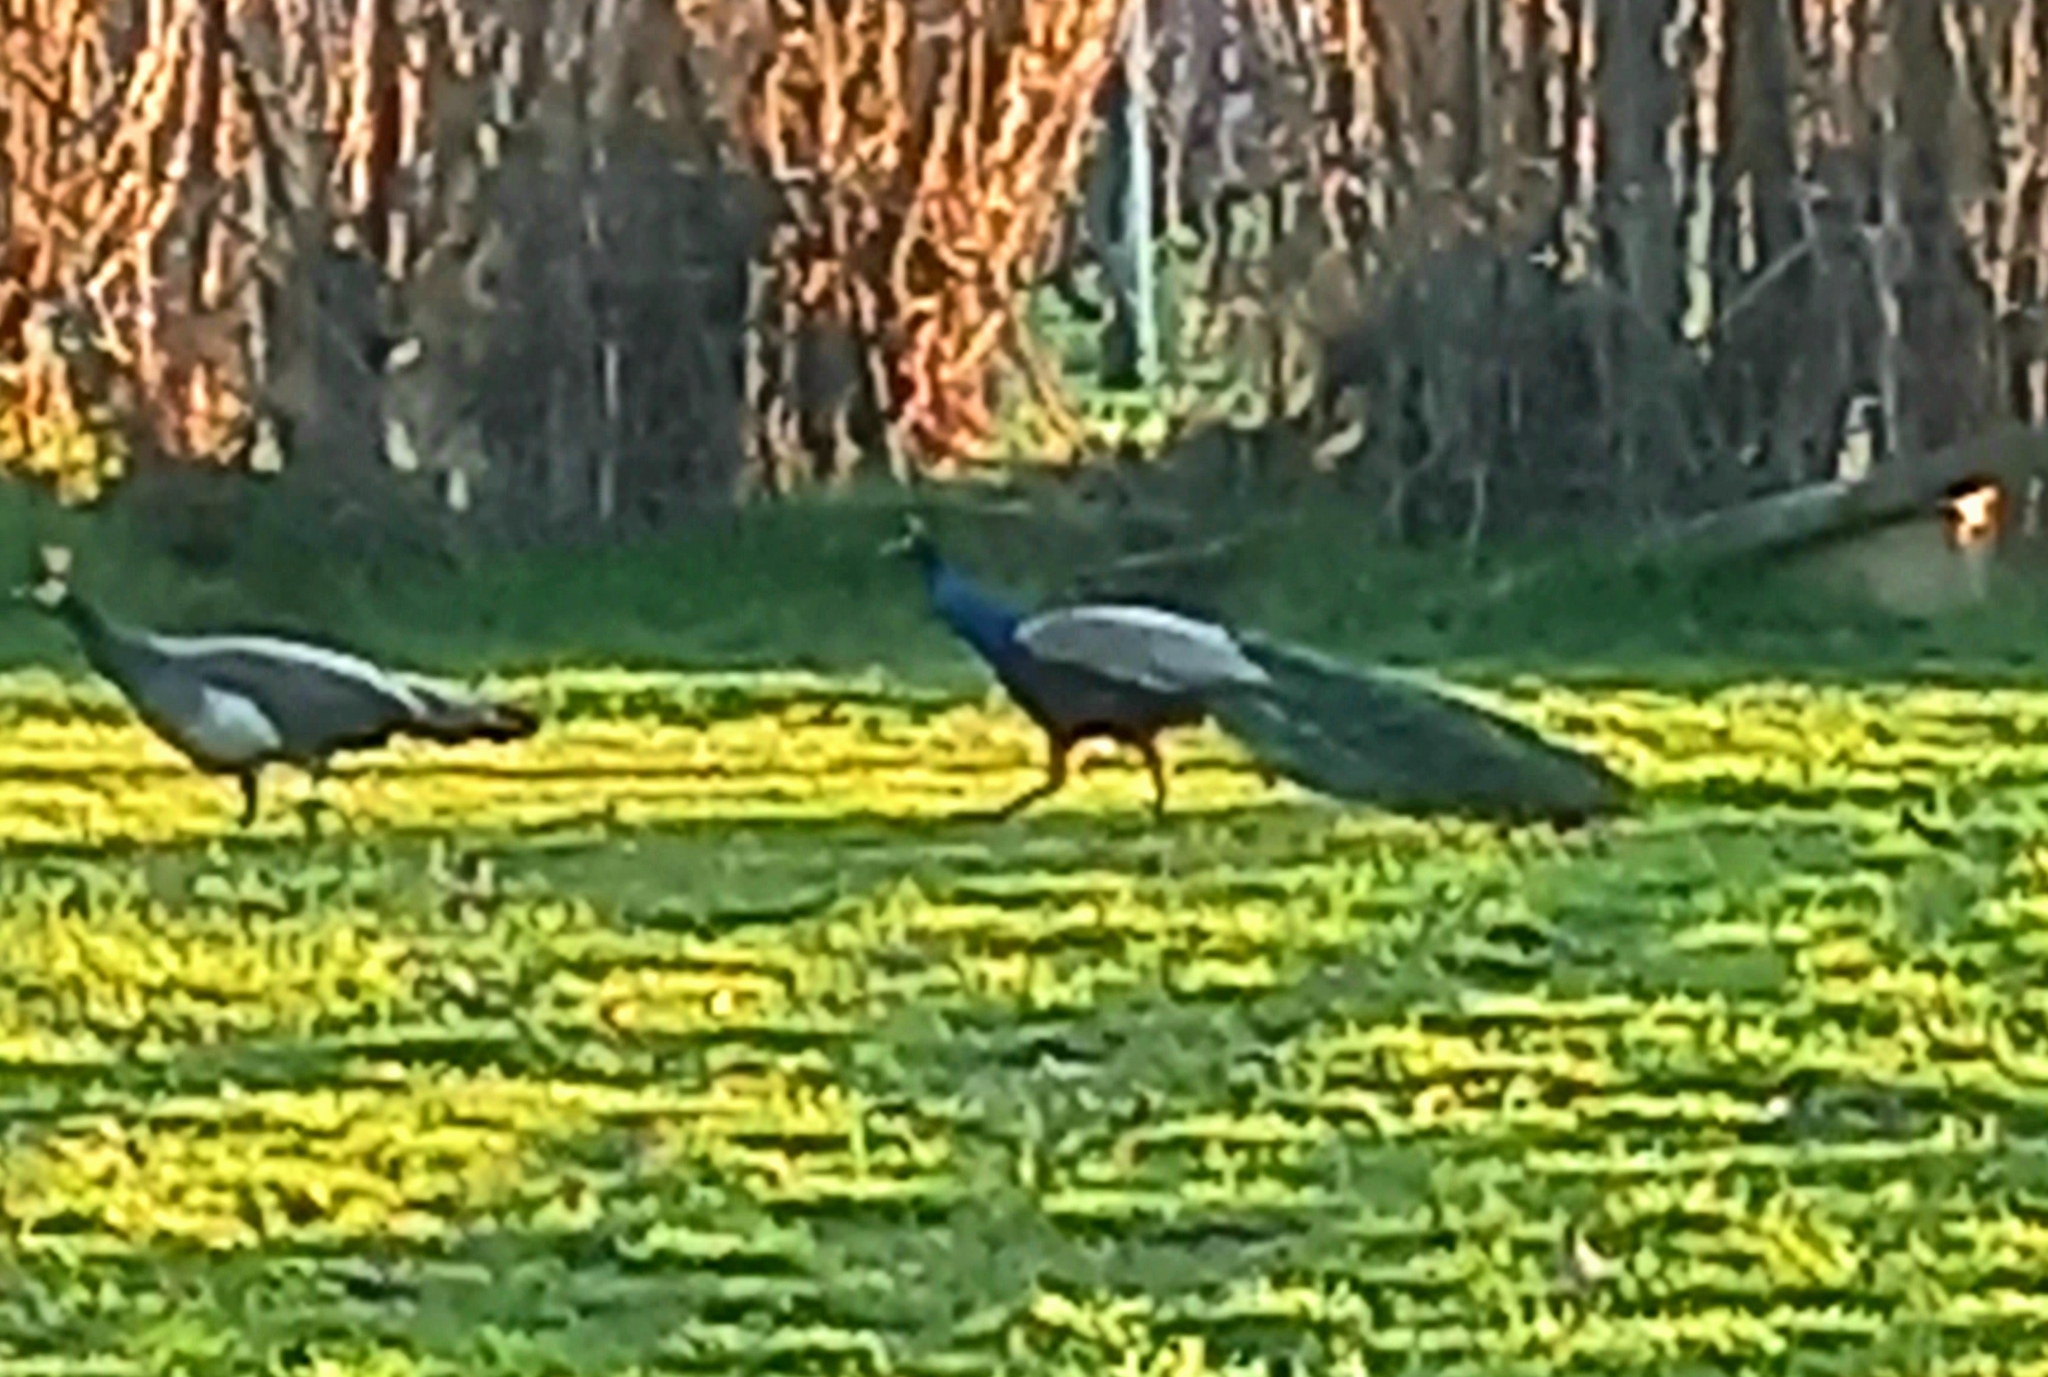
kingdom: Animalia
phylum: Chordata
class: Aves
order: Galliformes
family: Phasianidae
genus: Pavo
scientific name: Pavo cristatus
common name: Indian peafowl
